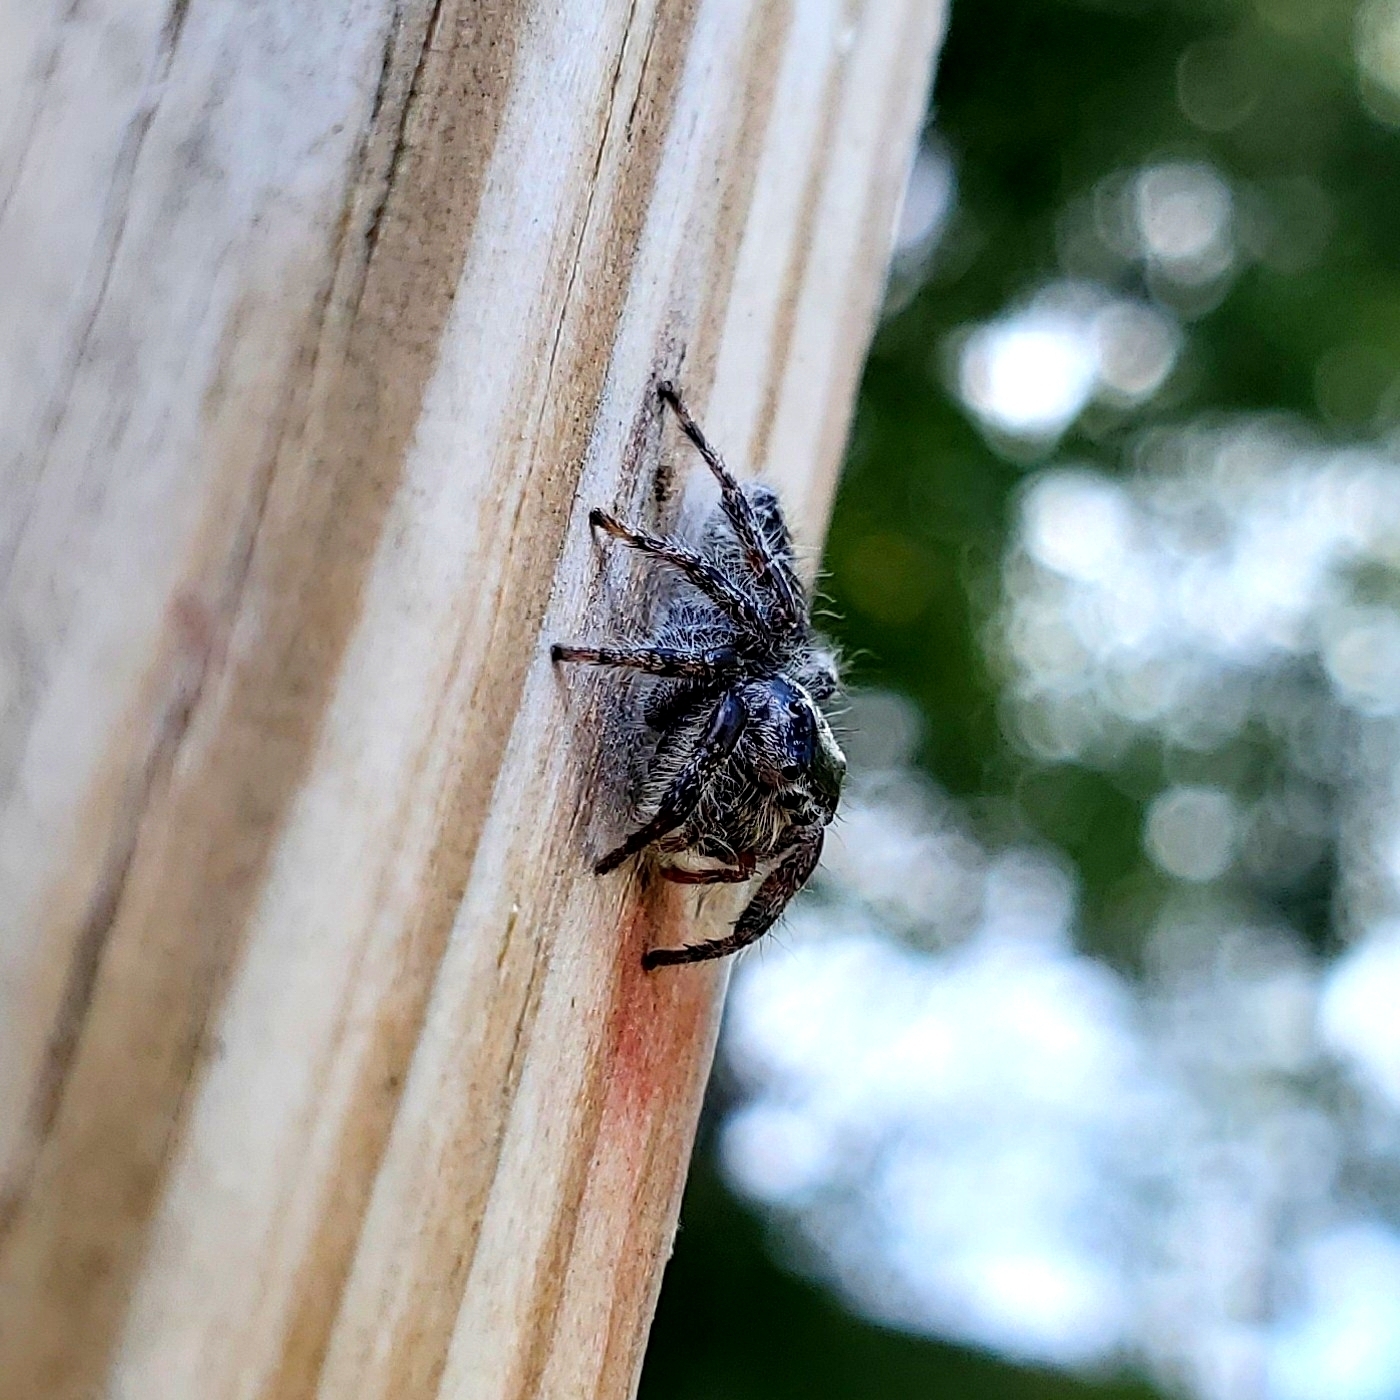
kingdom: Animalia
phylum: Arthropoda
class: Arachnida
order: Araneae
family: Salticidae
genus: Phidippus
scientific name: Phidippus putnami
